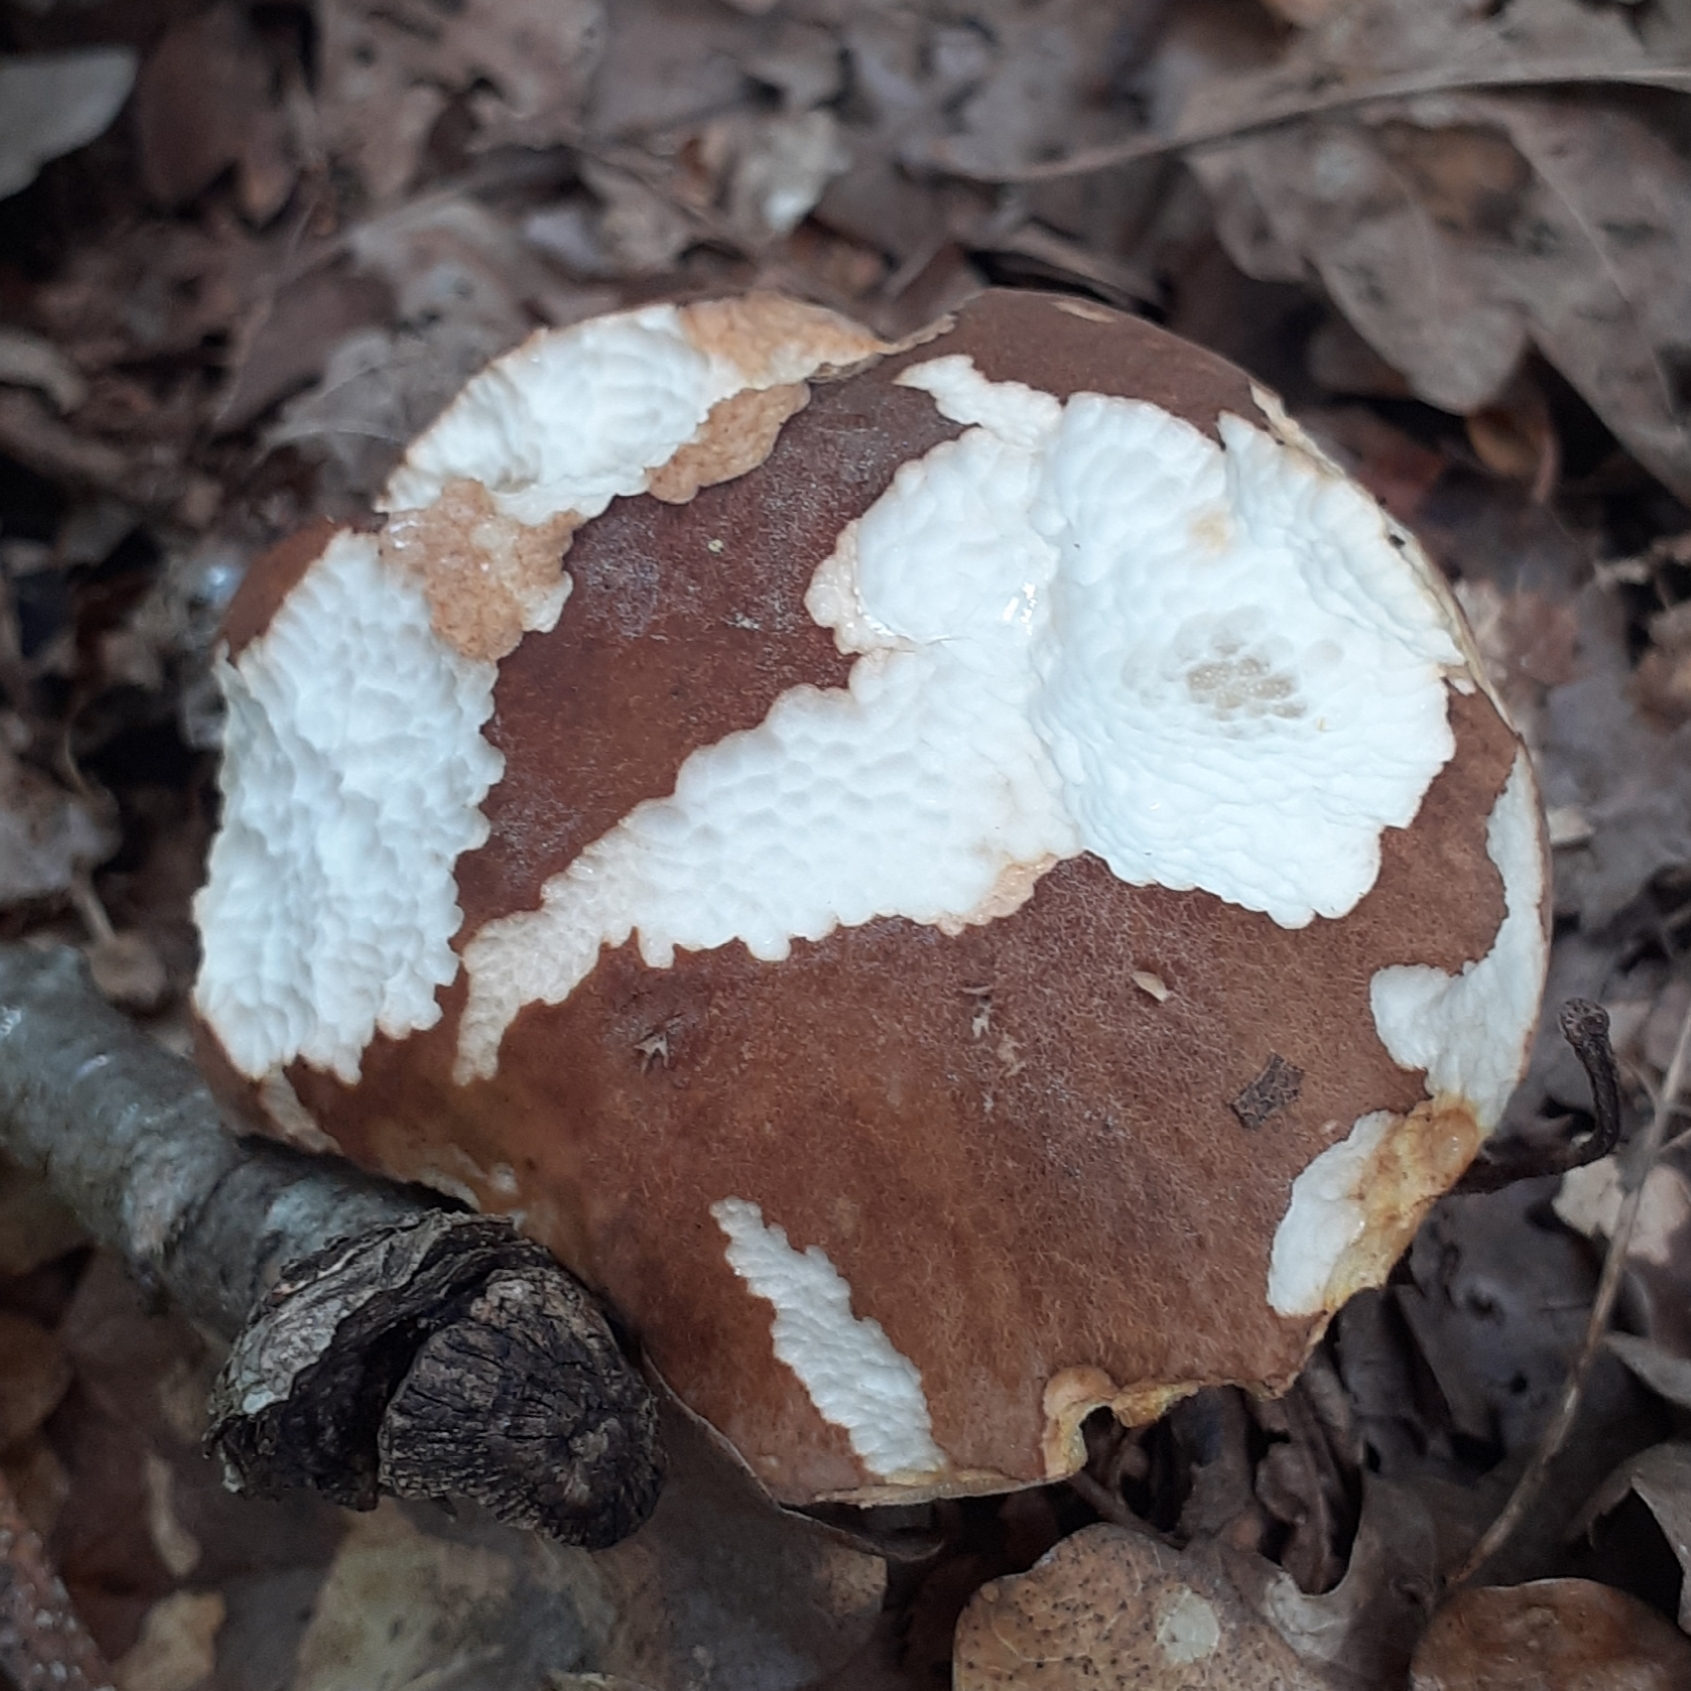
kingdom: Fungi
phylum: Basidiomycota
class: Agaricomycetes
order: Boletales
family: Boletaceae
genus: Boletus
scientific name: Boletus reticulatus
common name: Summer bolete
